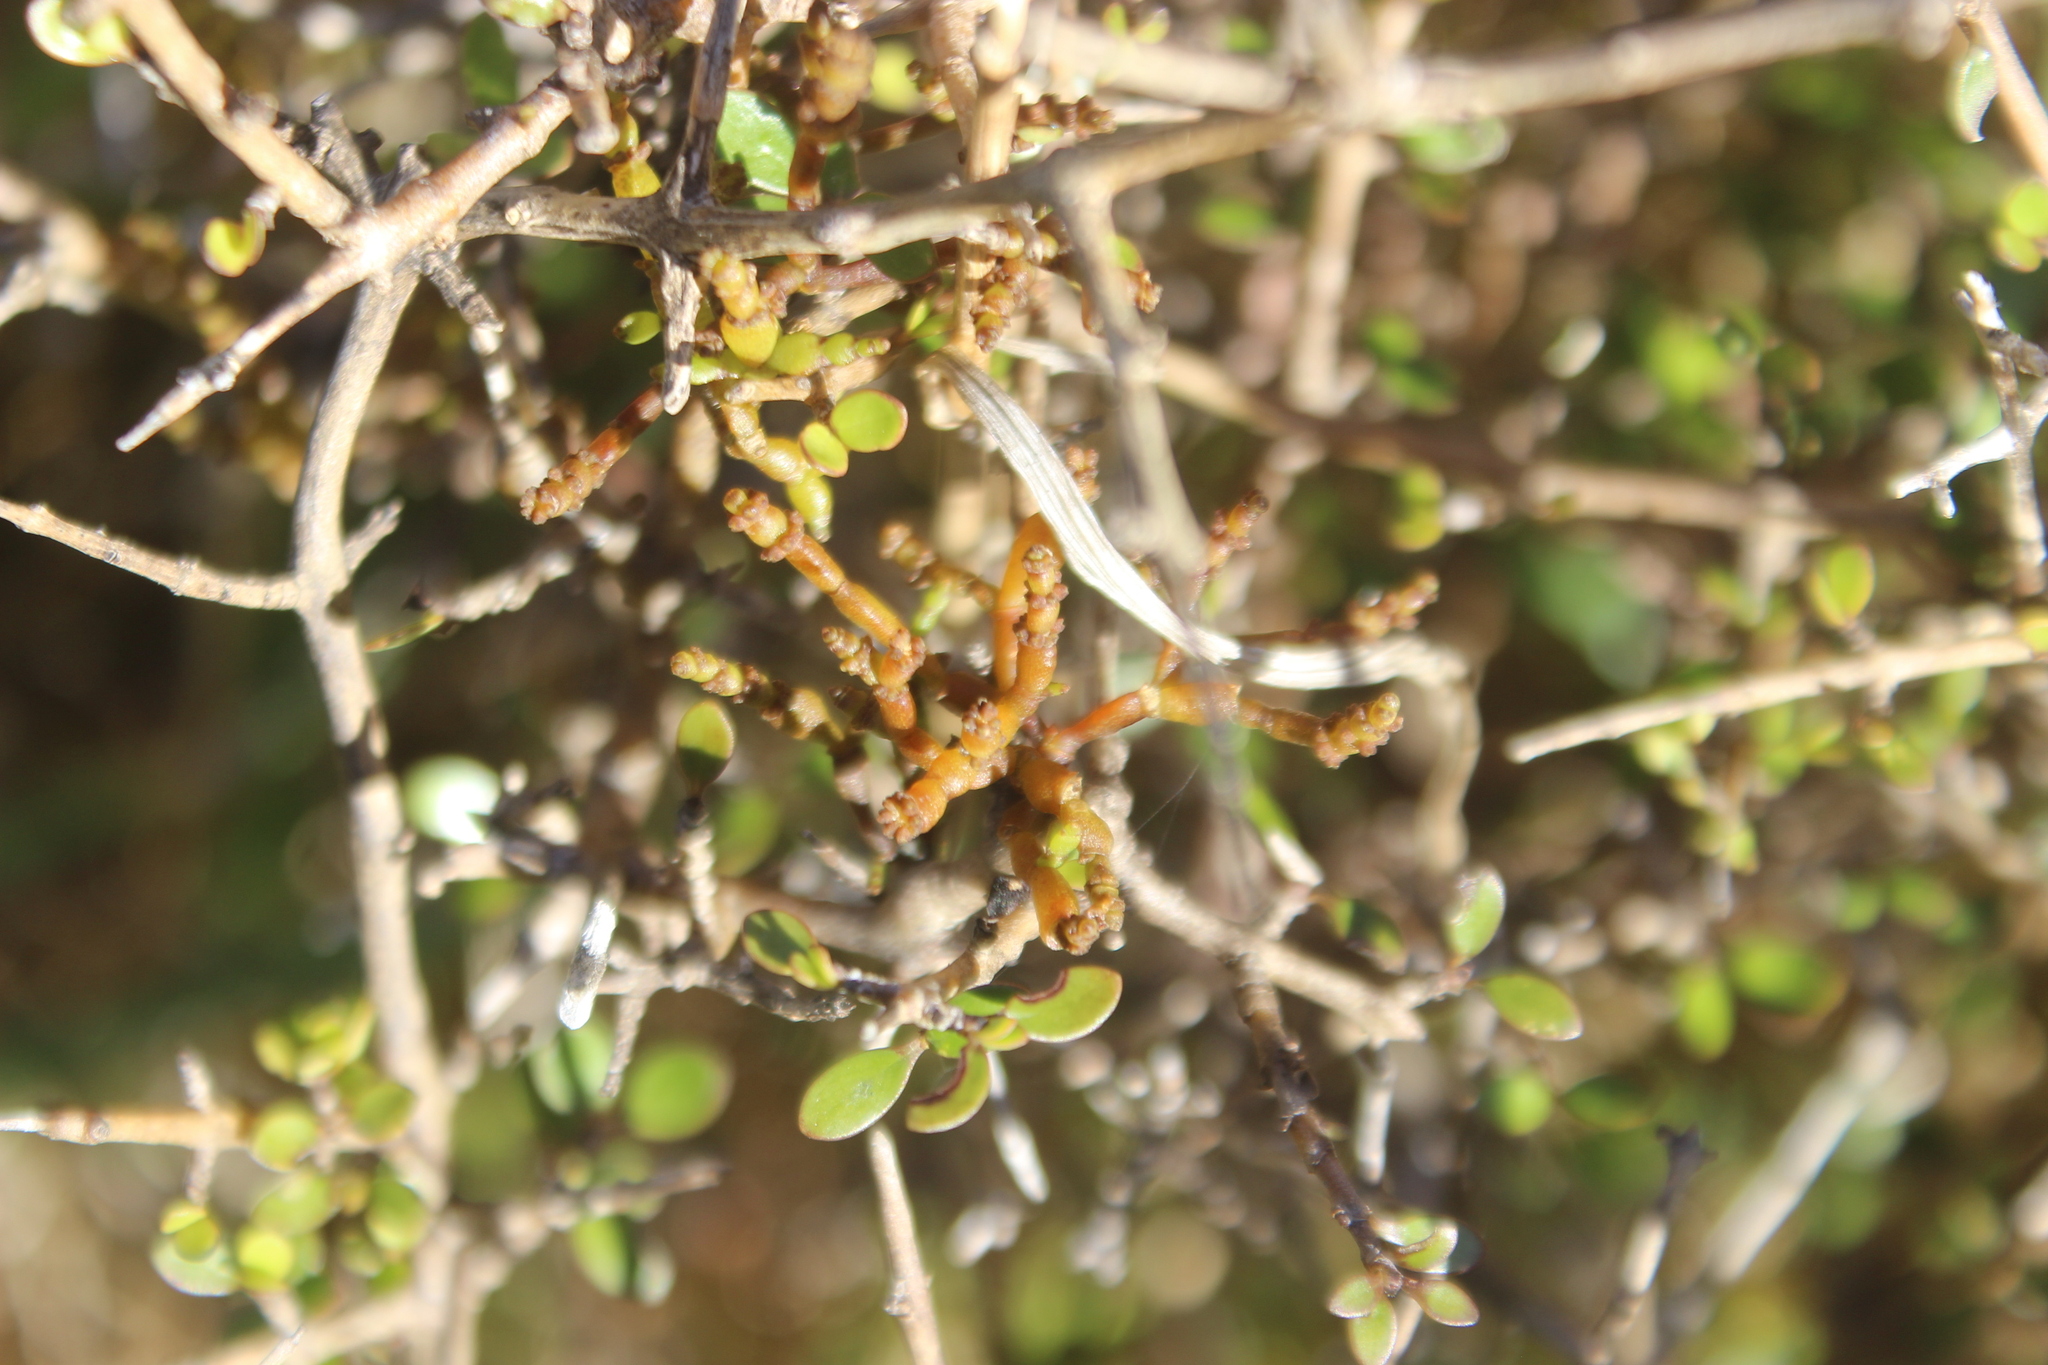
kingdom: Plantae
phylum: Tracheophyta
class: Magnoliopsida
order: Santalales
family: Viscaceae
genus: Korthalsella
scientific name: Korthalsella clavata
